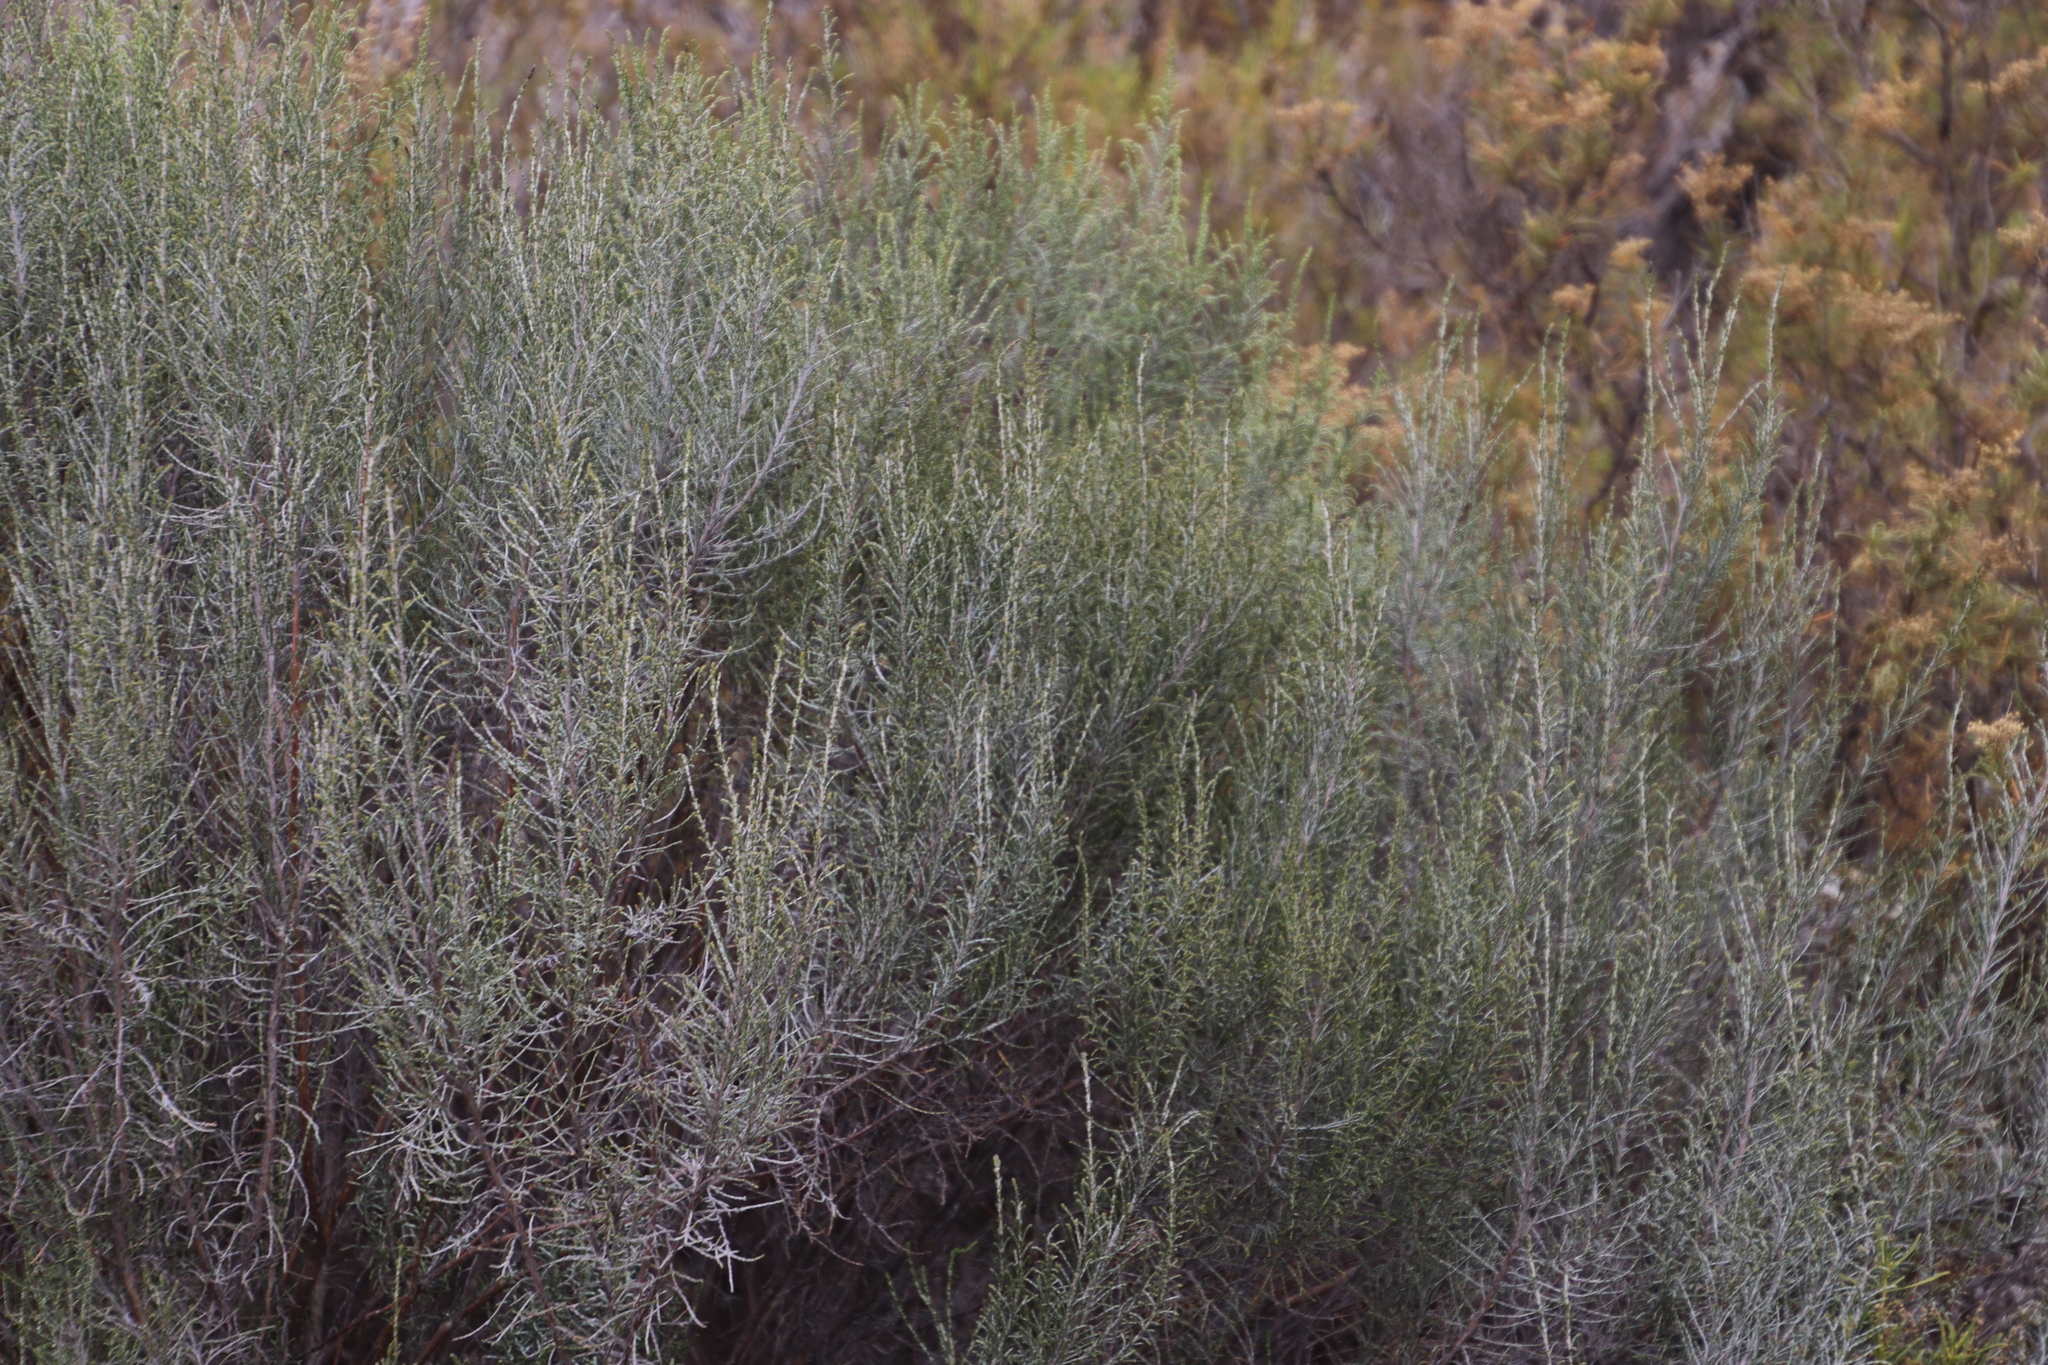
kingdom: Plantae
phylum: Tracheophyta
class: Magnoliopsida
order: Asterales
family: Asteraceae
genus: Dicerothamnus
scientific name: Dicerothamnus rhinocerotis
